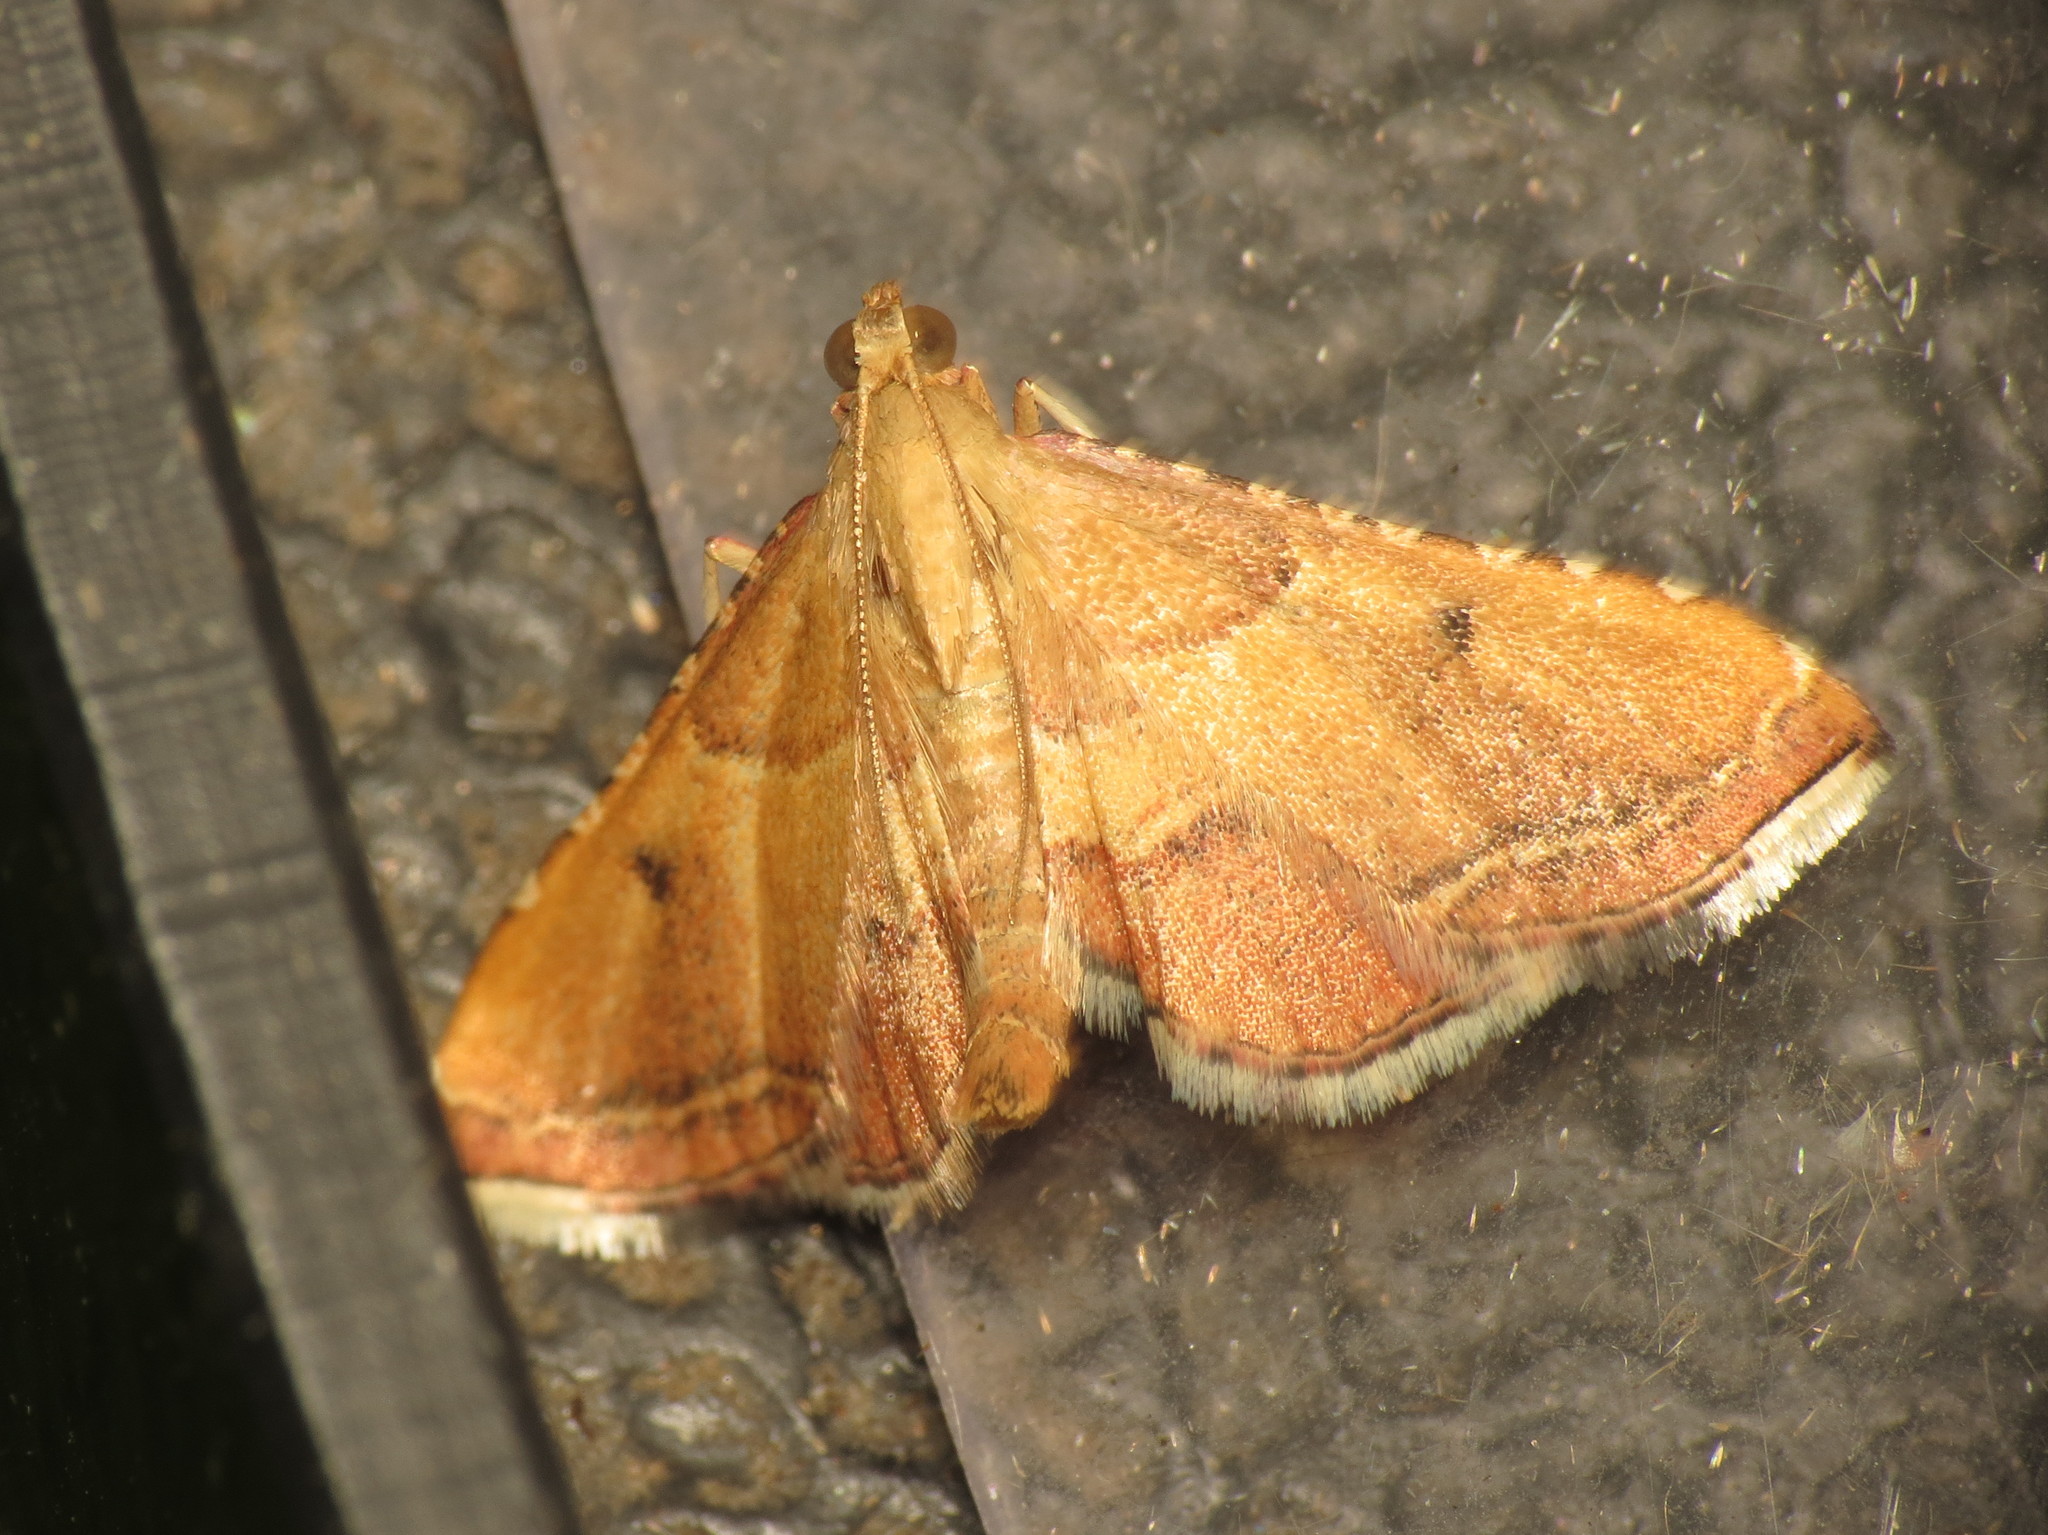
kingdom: Animalia
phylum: Arthropoda
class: Insecta
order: Lepidoptera
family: Pyralidae
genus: Endotricha
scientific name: Endotricha flammealis
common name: Rosy tabby
